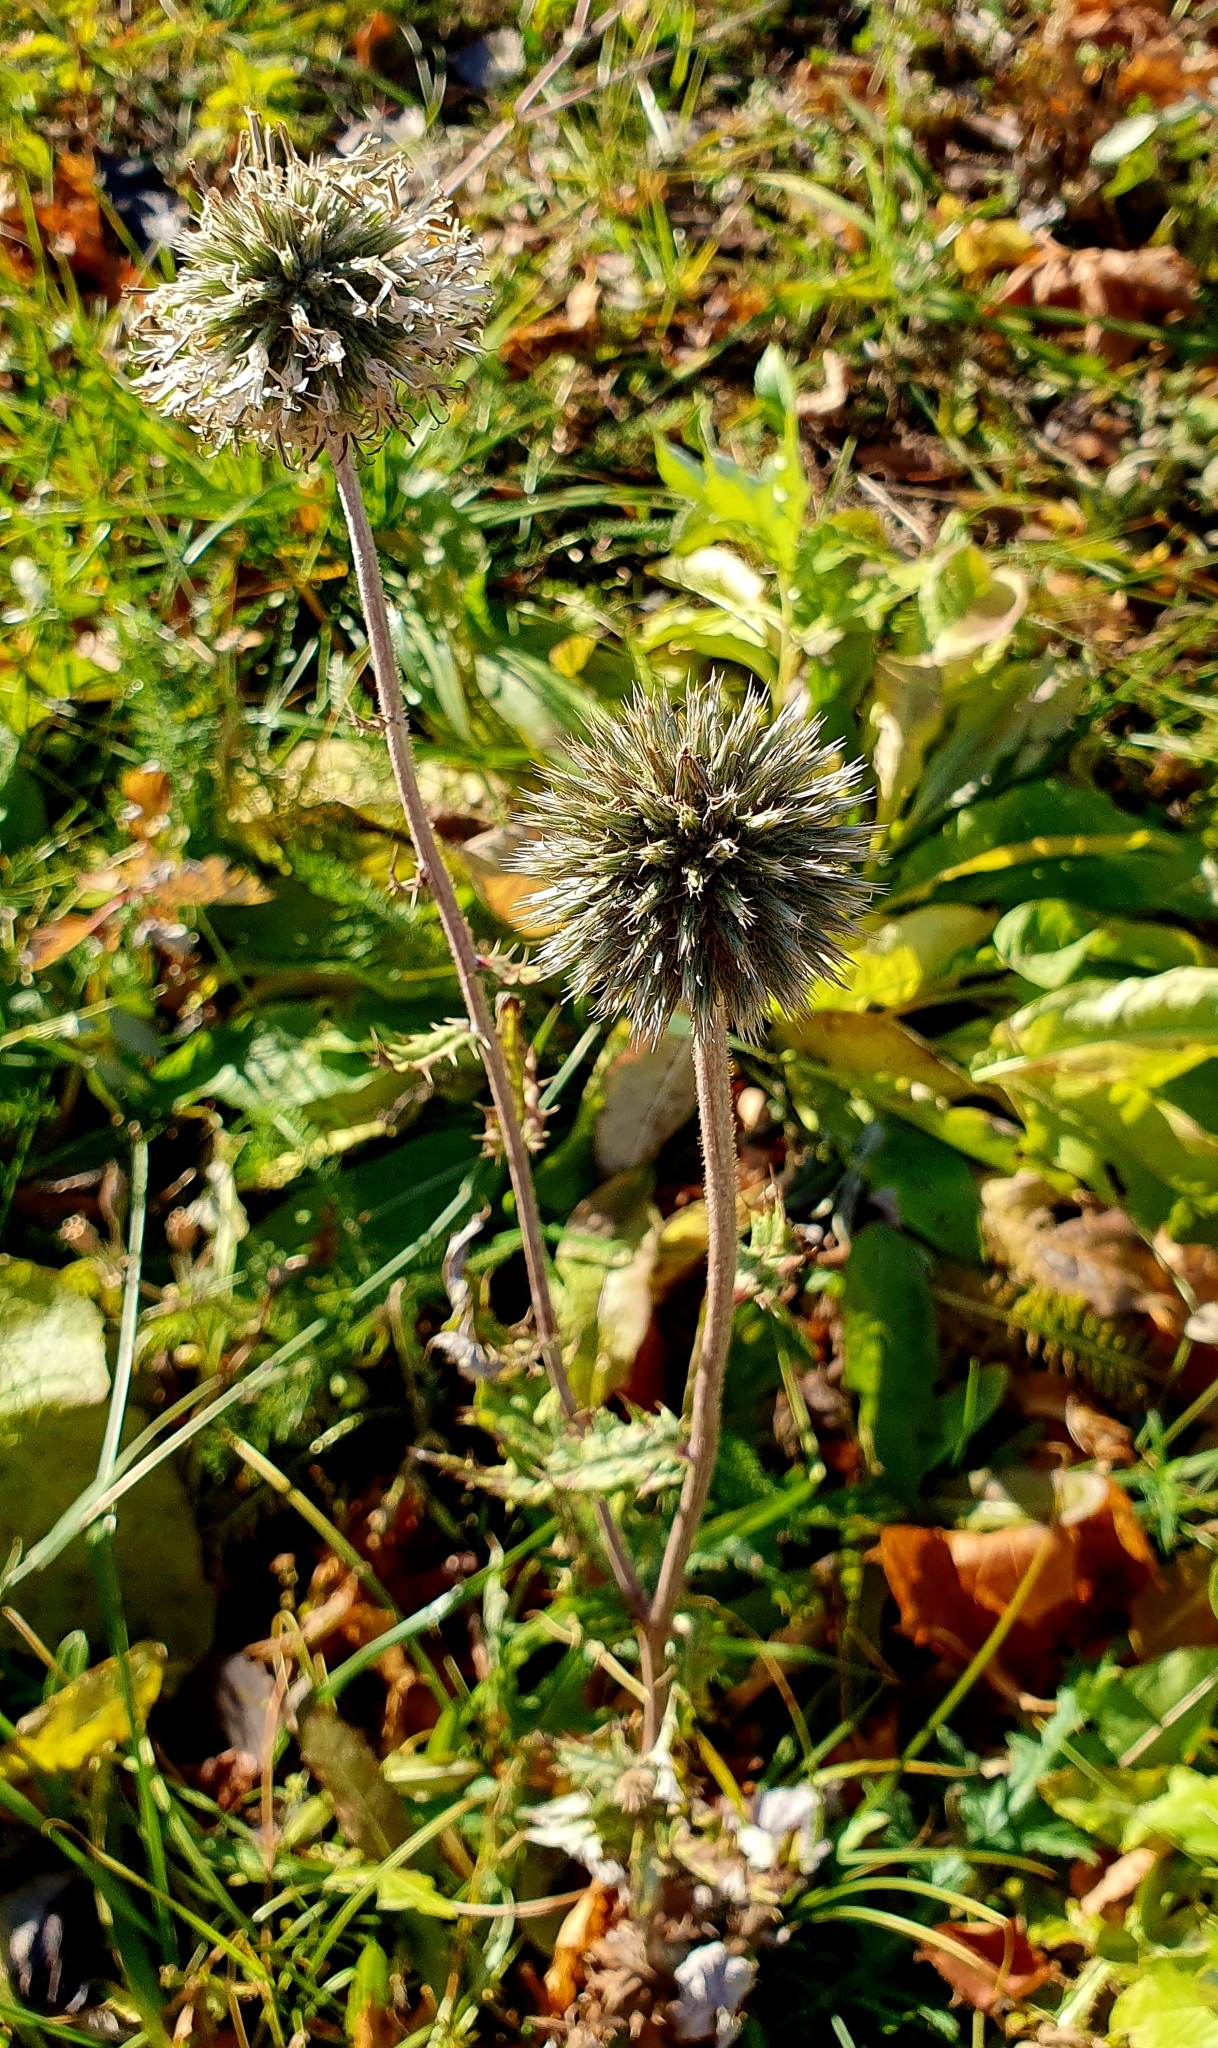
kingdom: Plantae
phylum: Tracheophyta
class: Magnoliopsida
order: Asterales
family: Asteraceae
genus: Echinops
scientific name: Echinops sphaerocephalus
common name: Glandular globe-thistle
